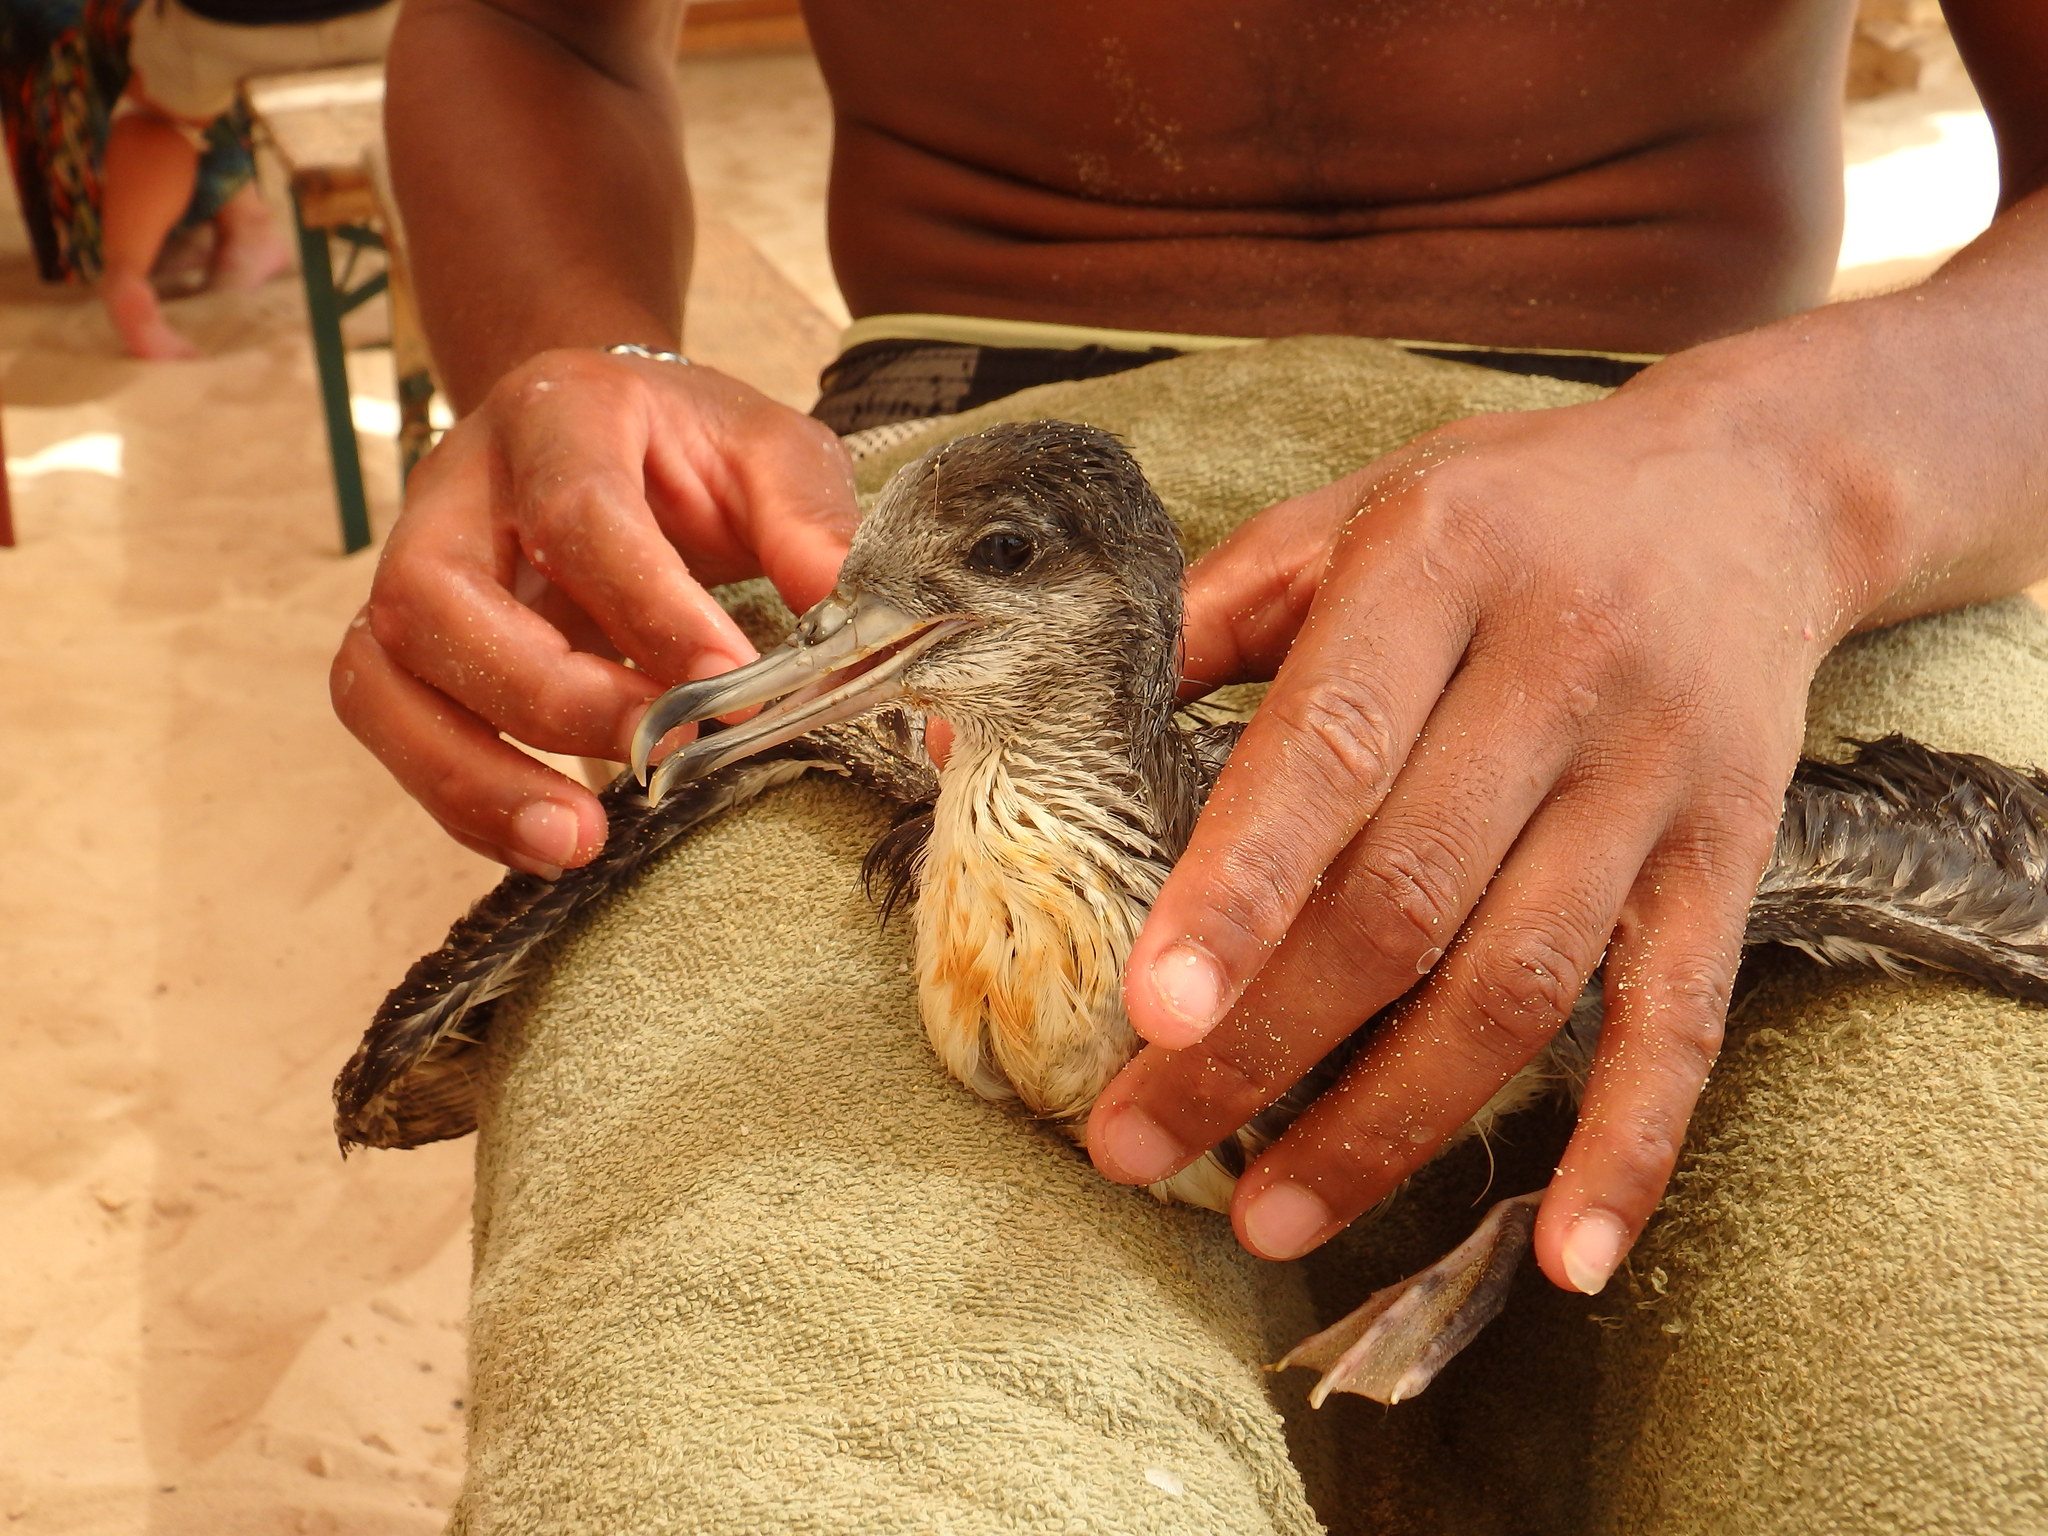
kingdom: Animalia
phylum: Chordata
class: Aves
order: Procellariiformes
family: Procellariidae
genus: Calonectris
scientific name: Calonectris edwardsii
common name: Cape verde shearwater
